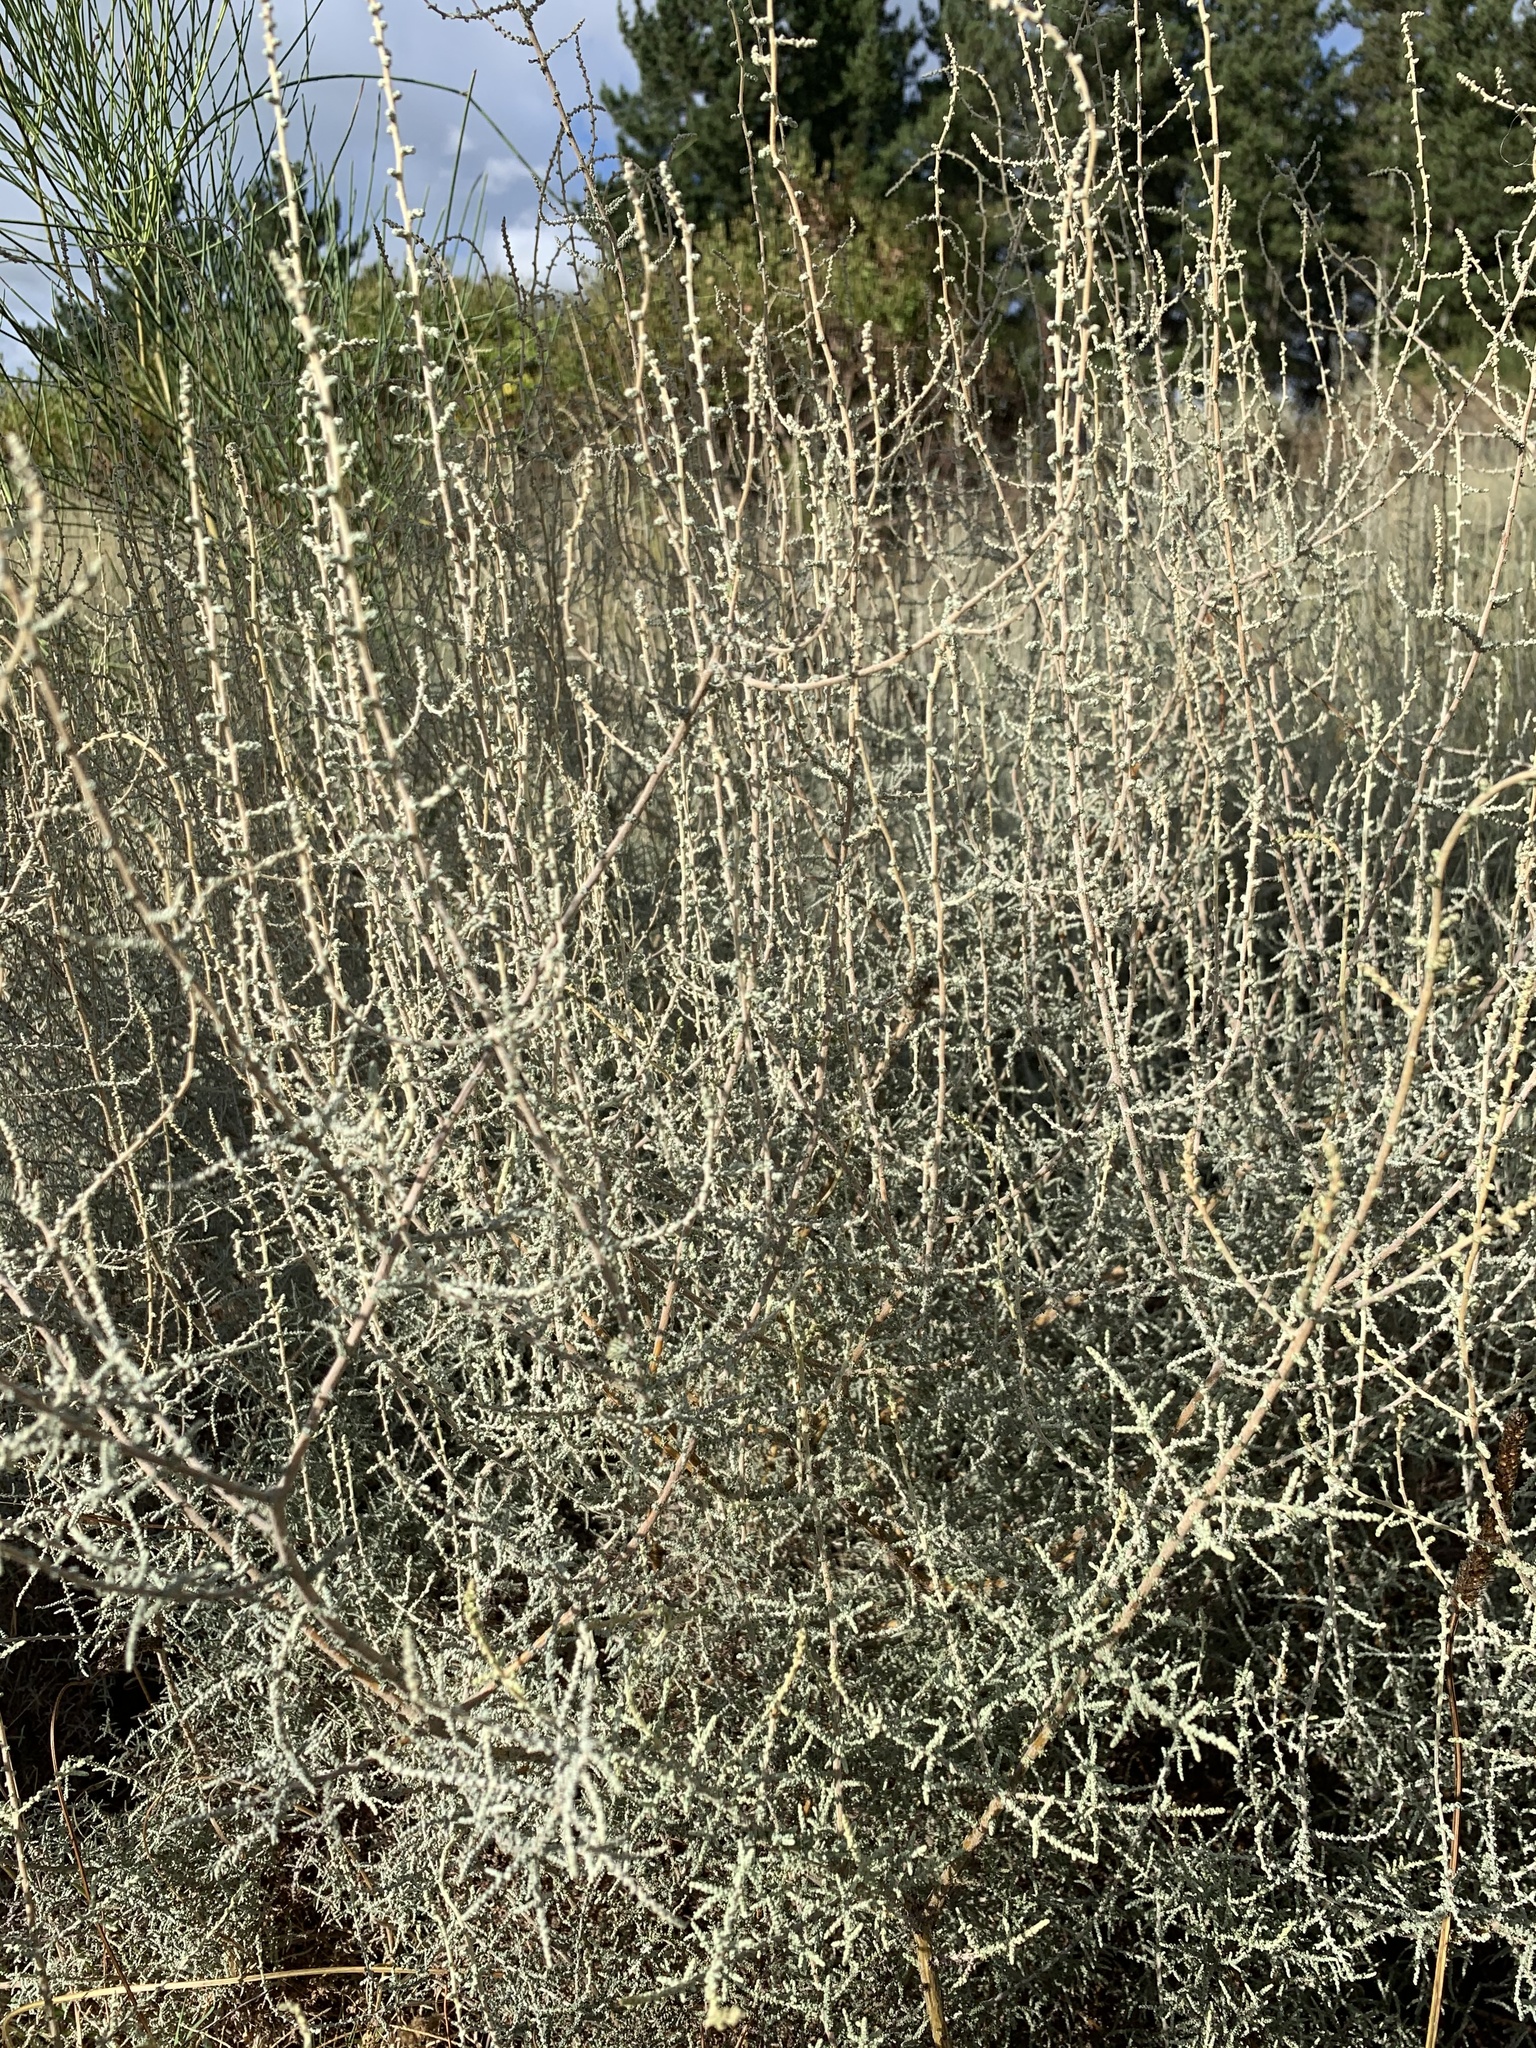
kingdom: Plantae
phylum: Tracheophyta
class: Magnoliopsida
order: Asterales
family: Asteraceae
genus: Seriphium
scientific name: Seriphium plumosum
